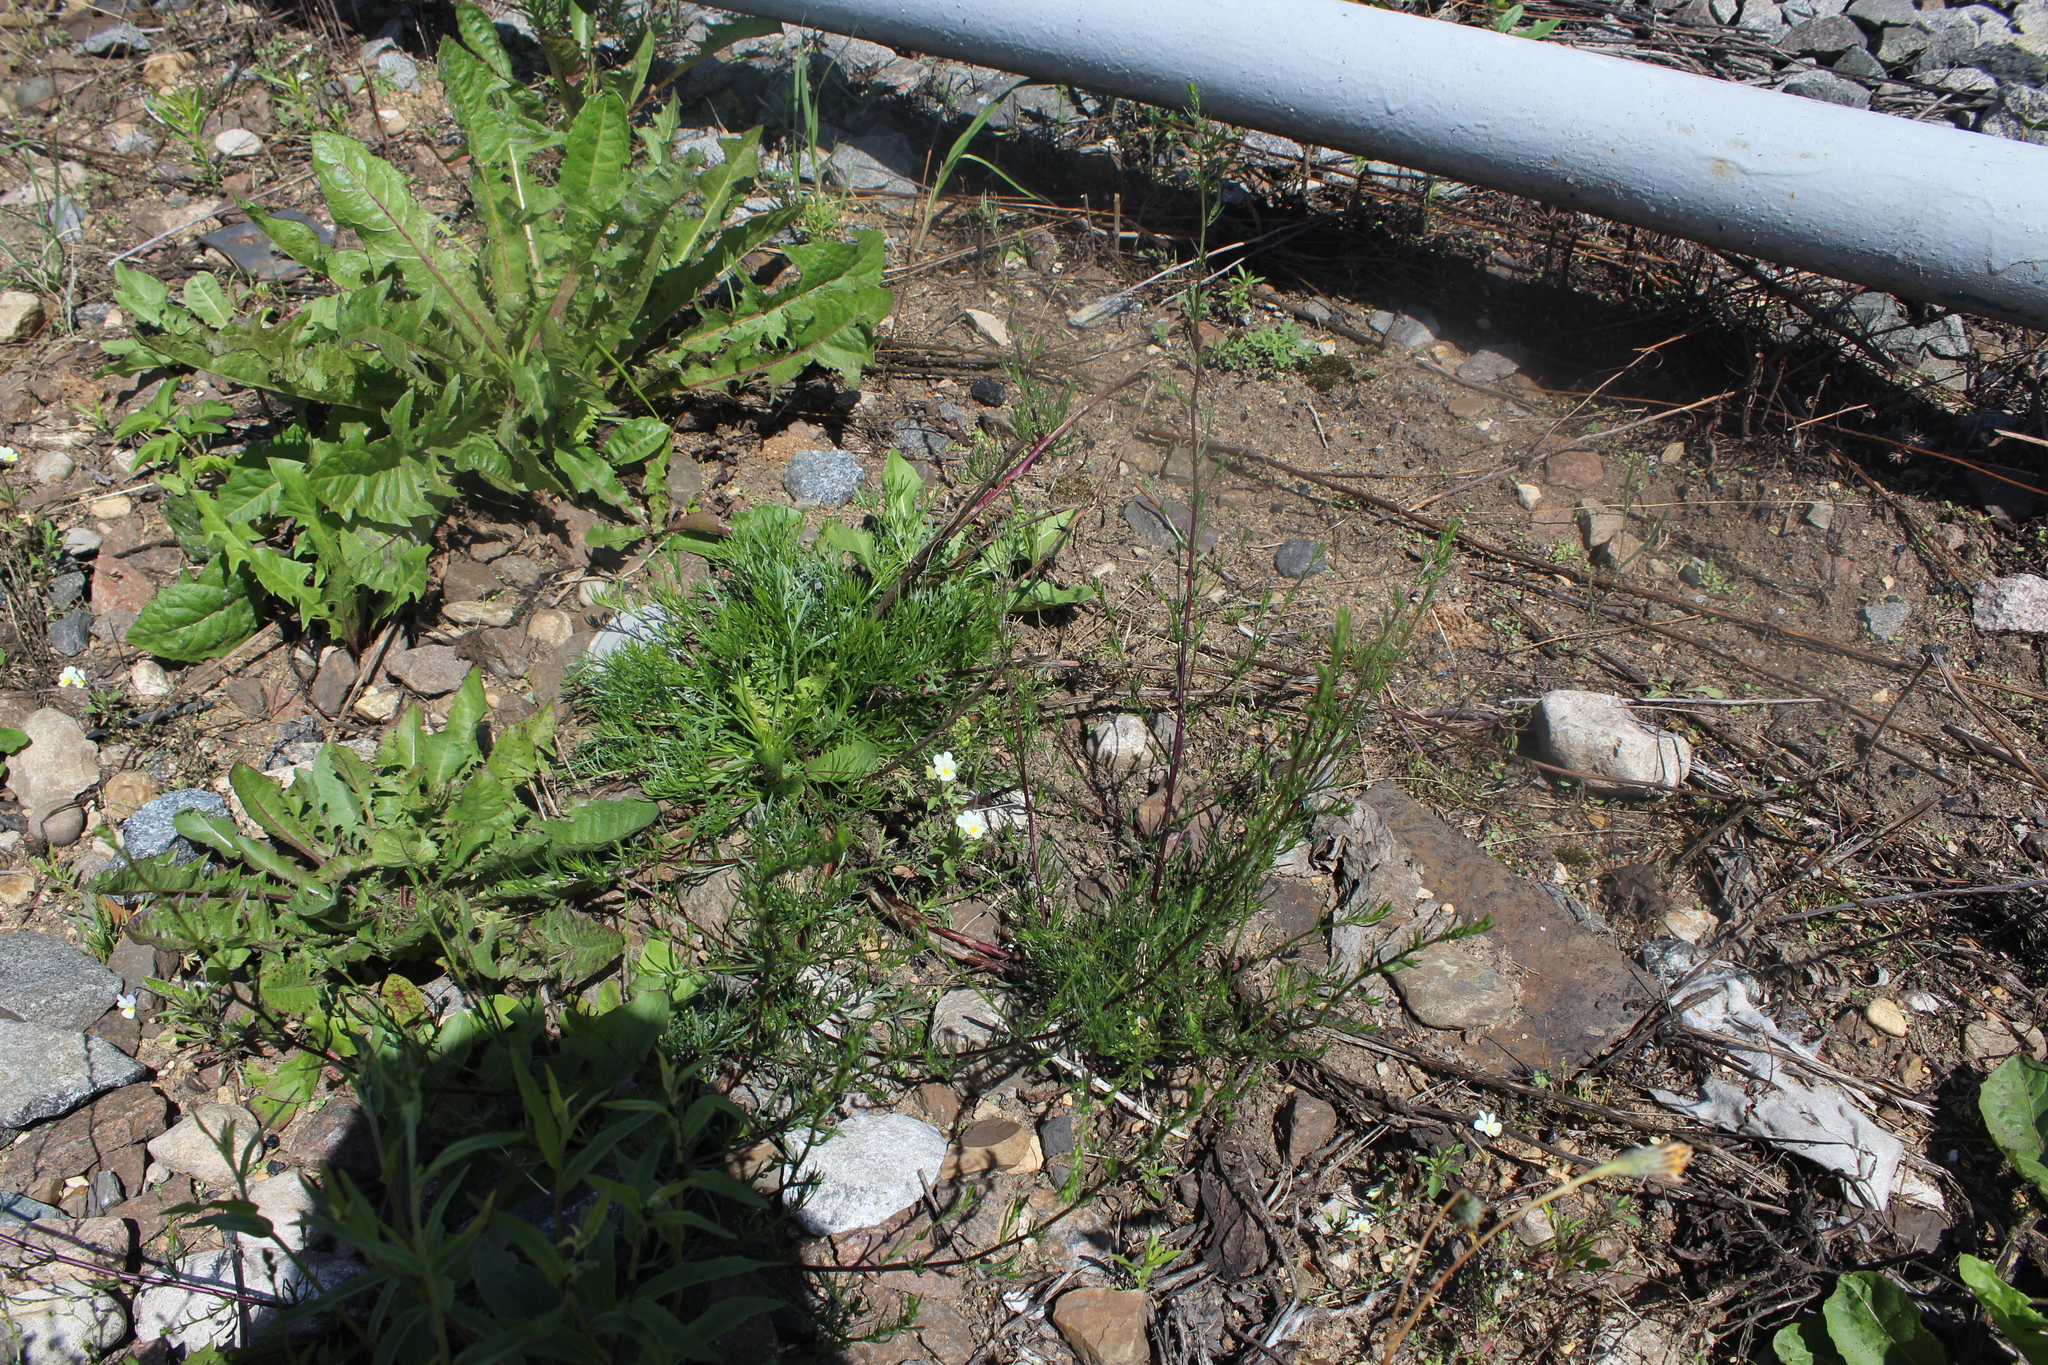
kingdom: Plantae
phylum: Tracheophyta
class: Magnoliopsida
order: Asterales
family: Asteraceae
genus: Artemisia
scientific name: Artemisia campestris
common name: Field wormwood
